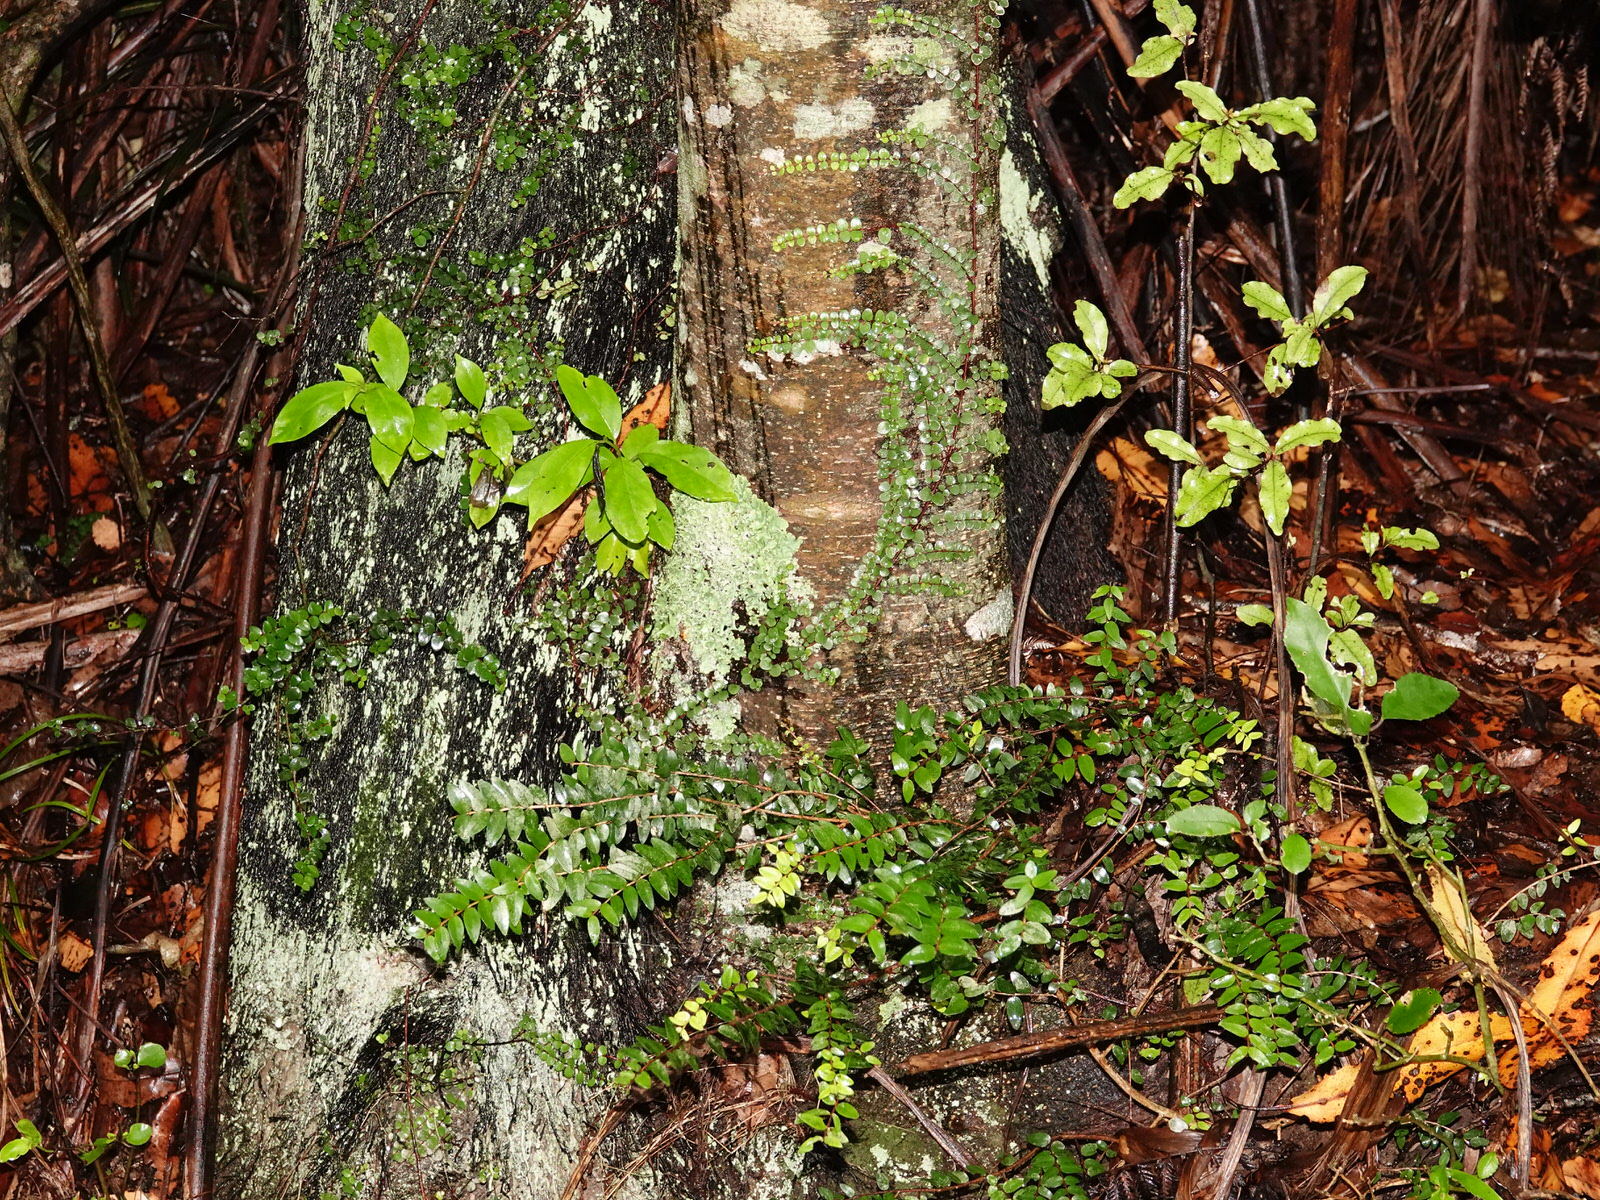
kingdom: Plantae
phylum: Tracheophyta
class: Magnoliopsida
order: Myrtales
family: Myrtaceae
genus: Metrosideros
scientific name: Metrosideros perforata
